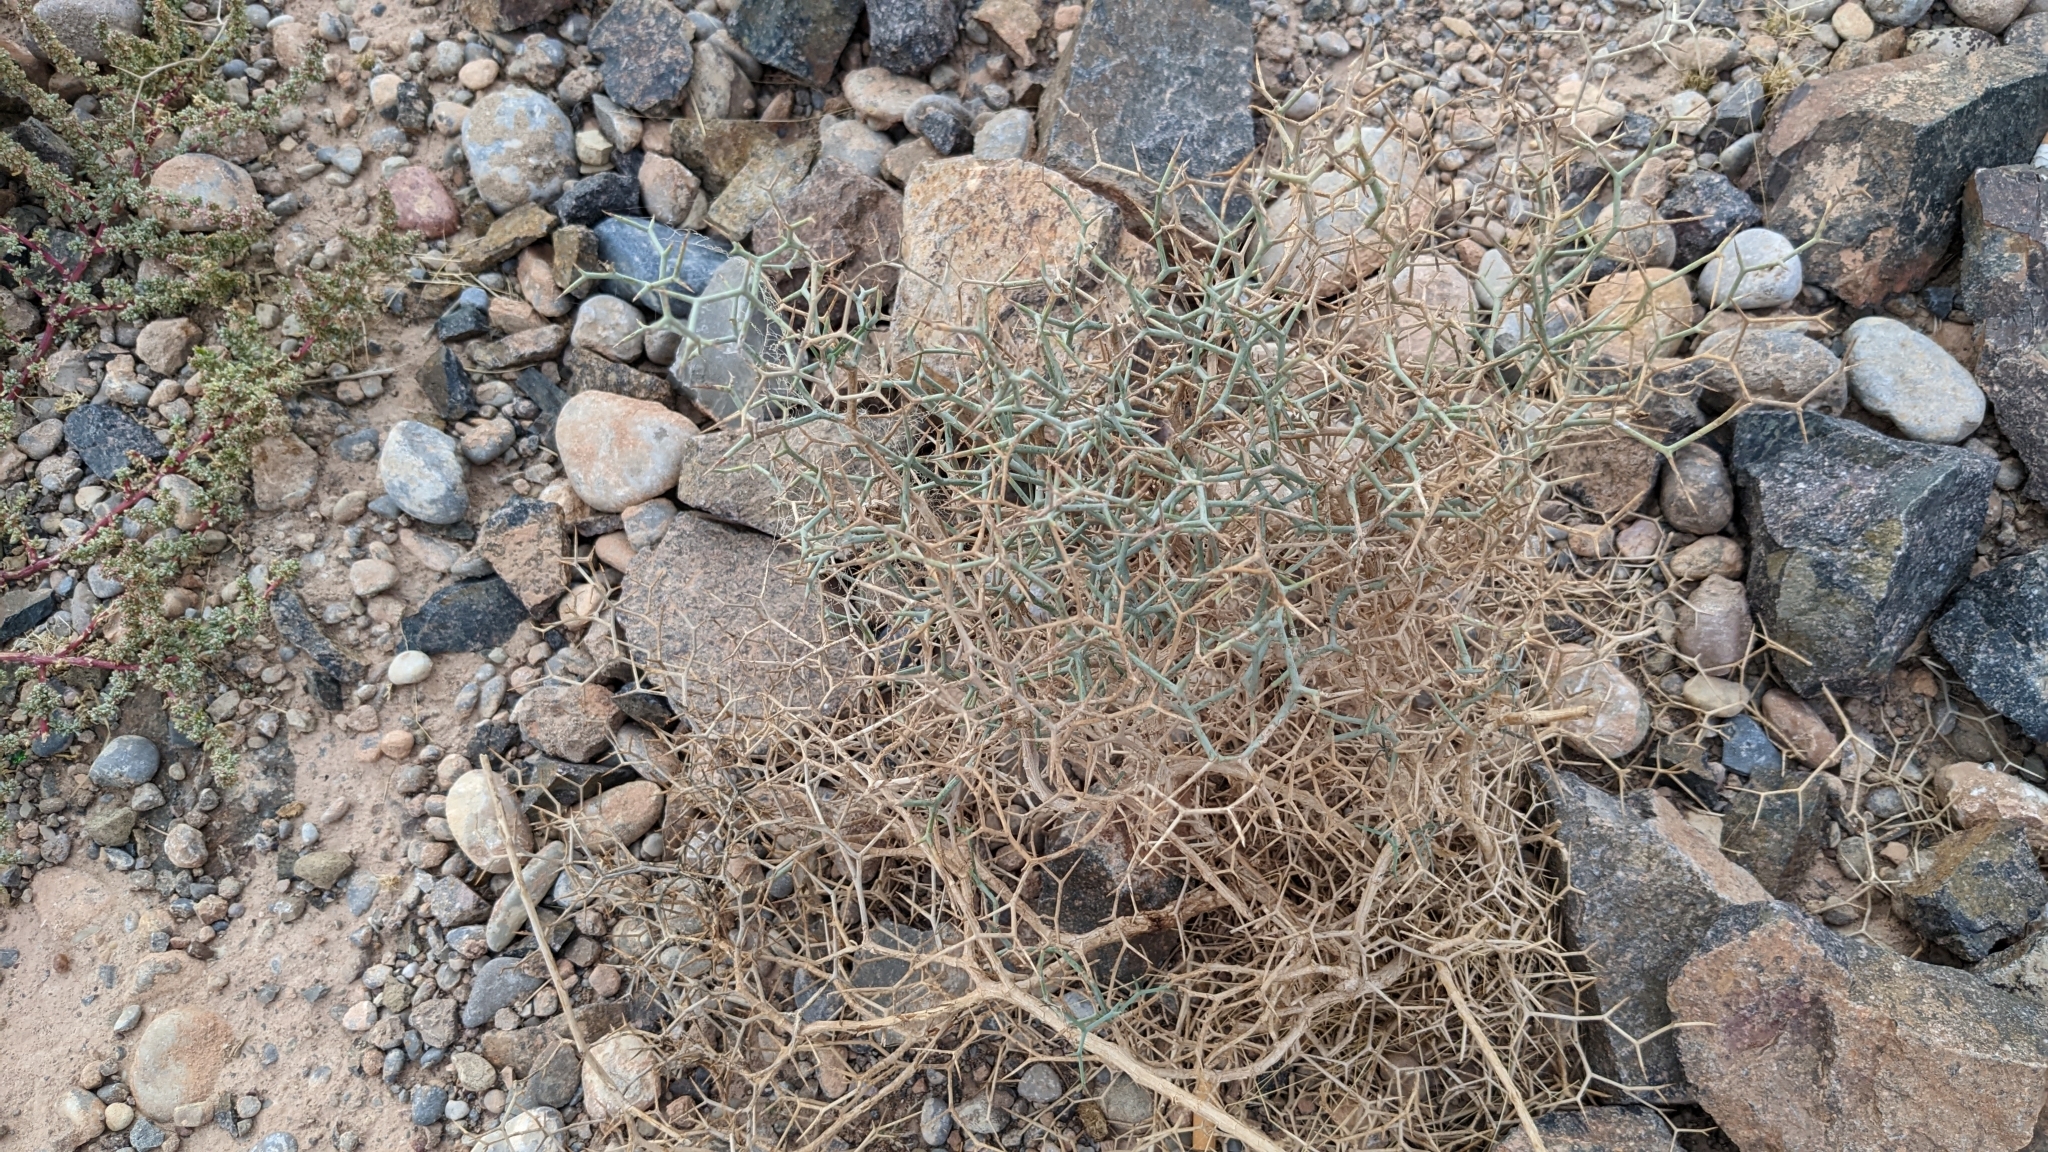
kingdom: Plantae
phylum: Tracheophyta
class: Magnoliopsida
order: Asterales
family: Asteraceae
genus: Launaea
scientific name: Launaea arborescens
